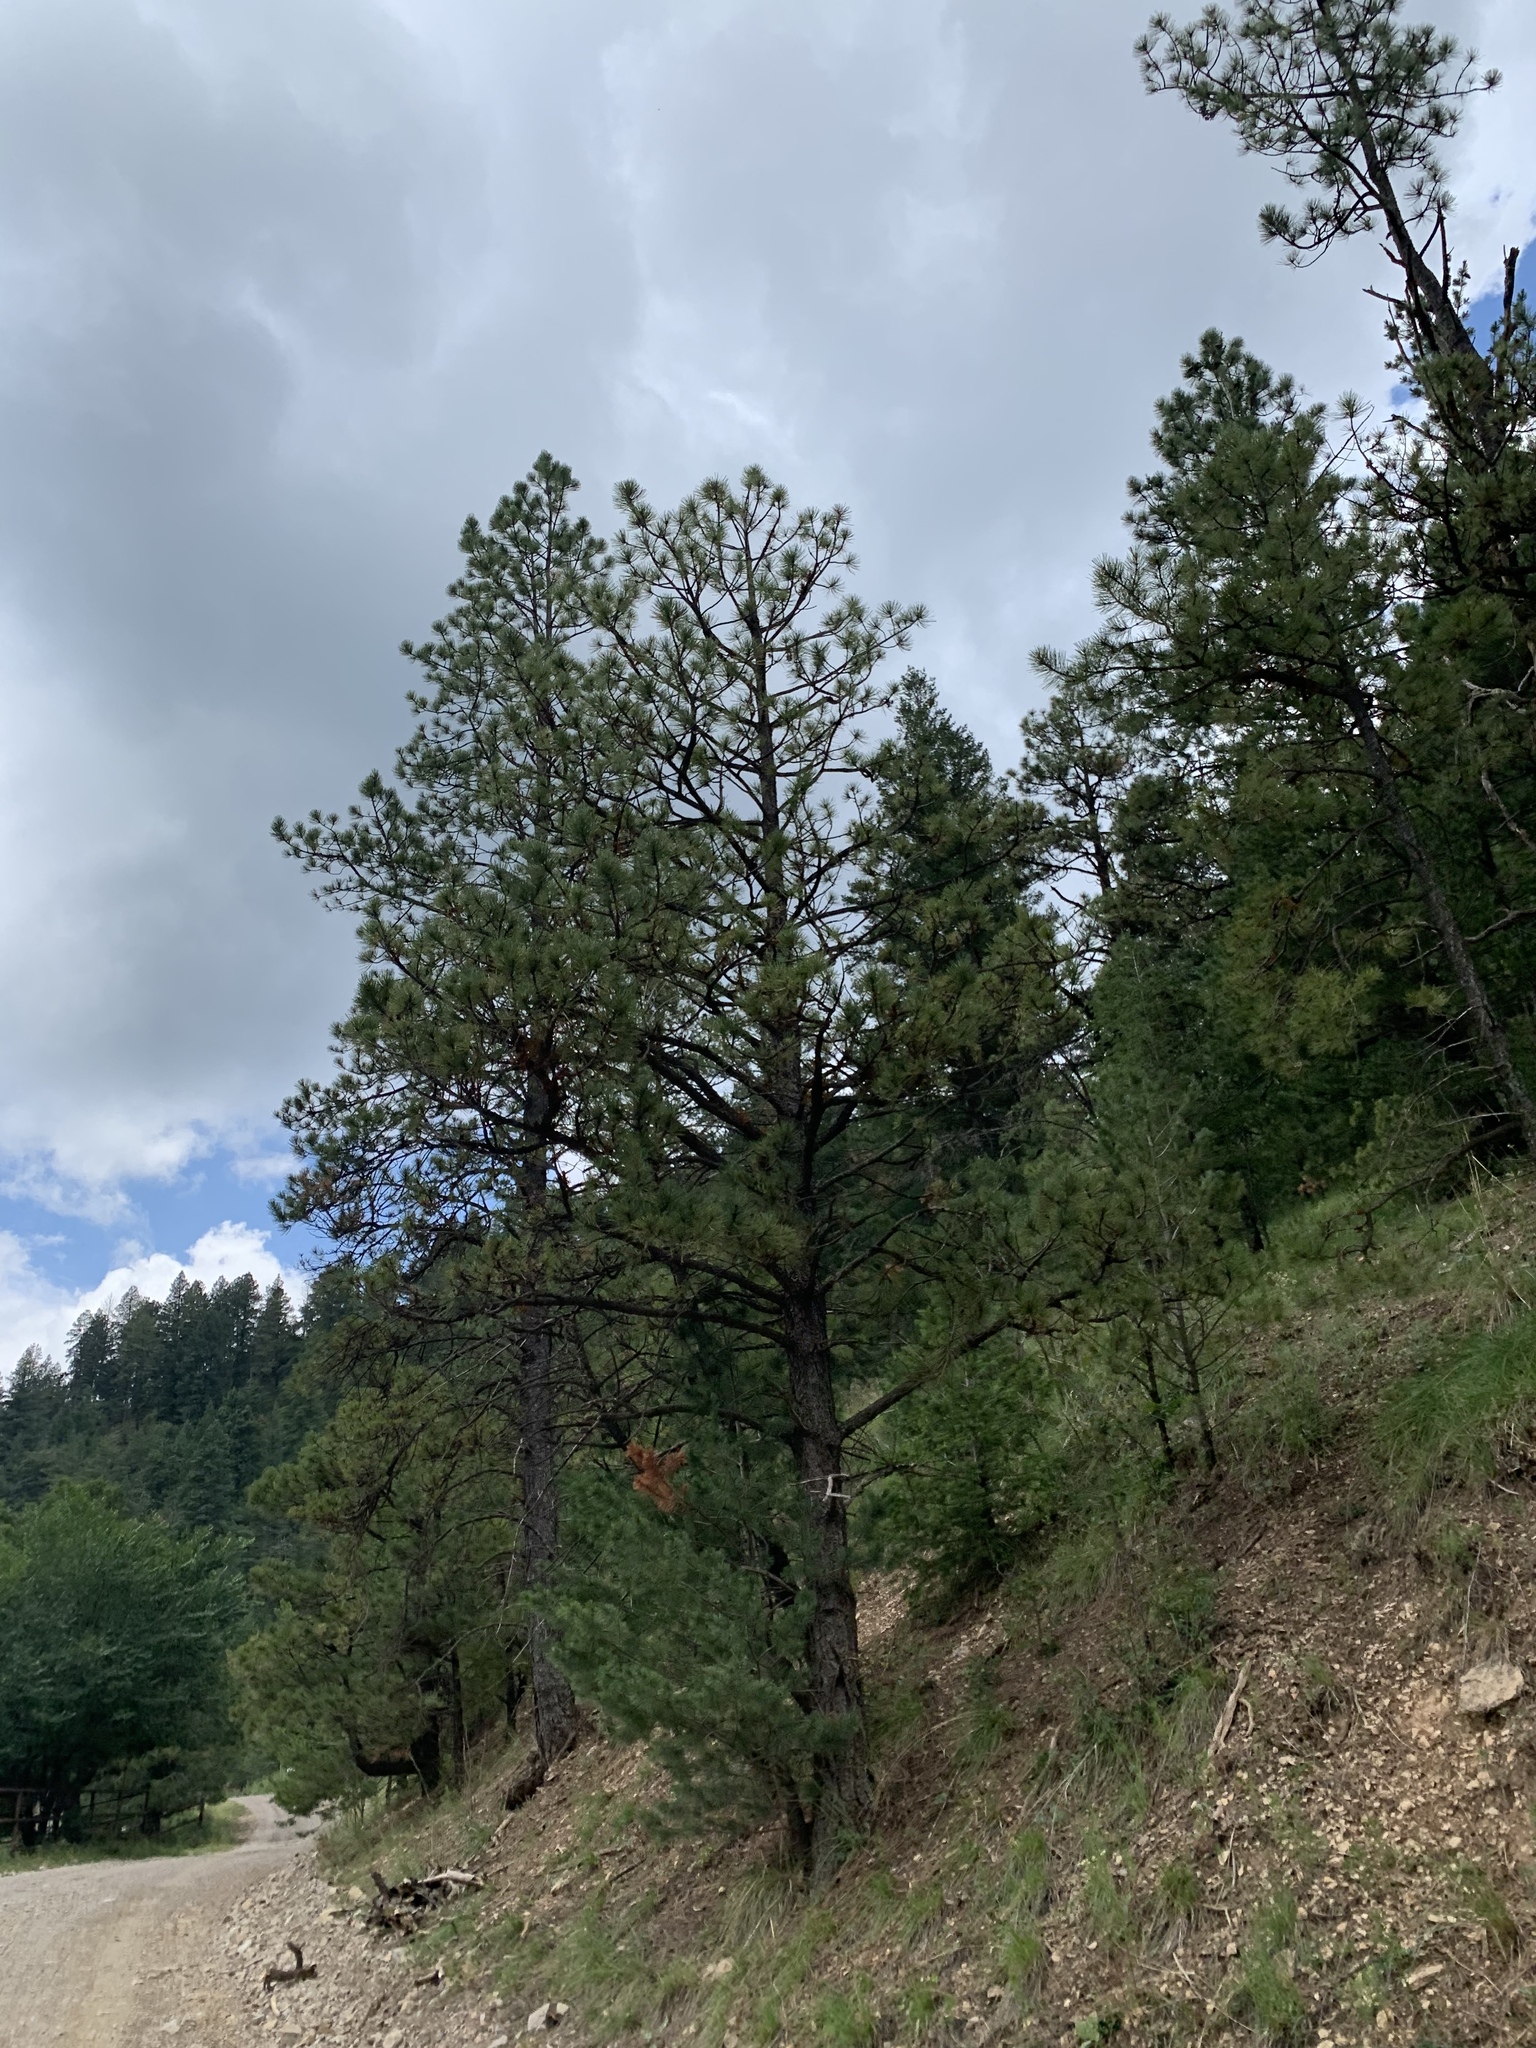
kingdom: Plantae
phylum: Tracheophyta
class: Pinopsida
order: Pinales
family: Pinaceae
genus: Pinus
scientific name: Pinus ponderosa
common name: Western yellow-pine
